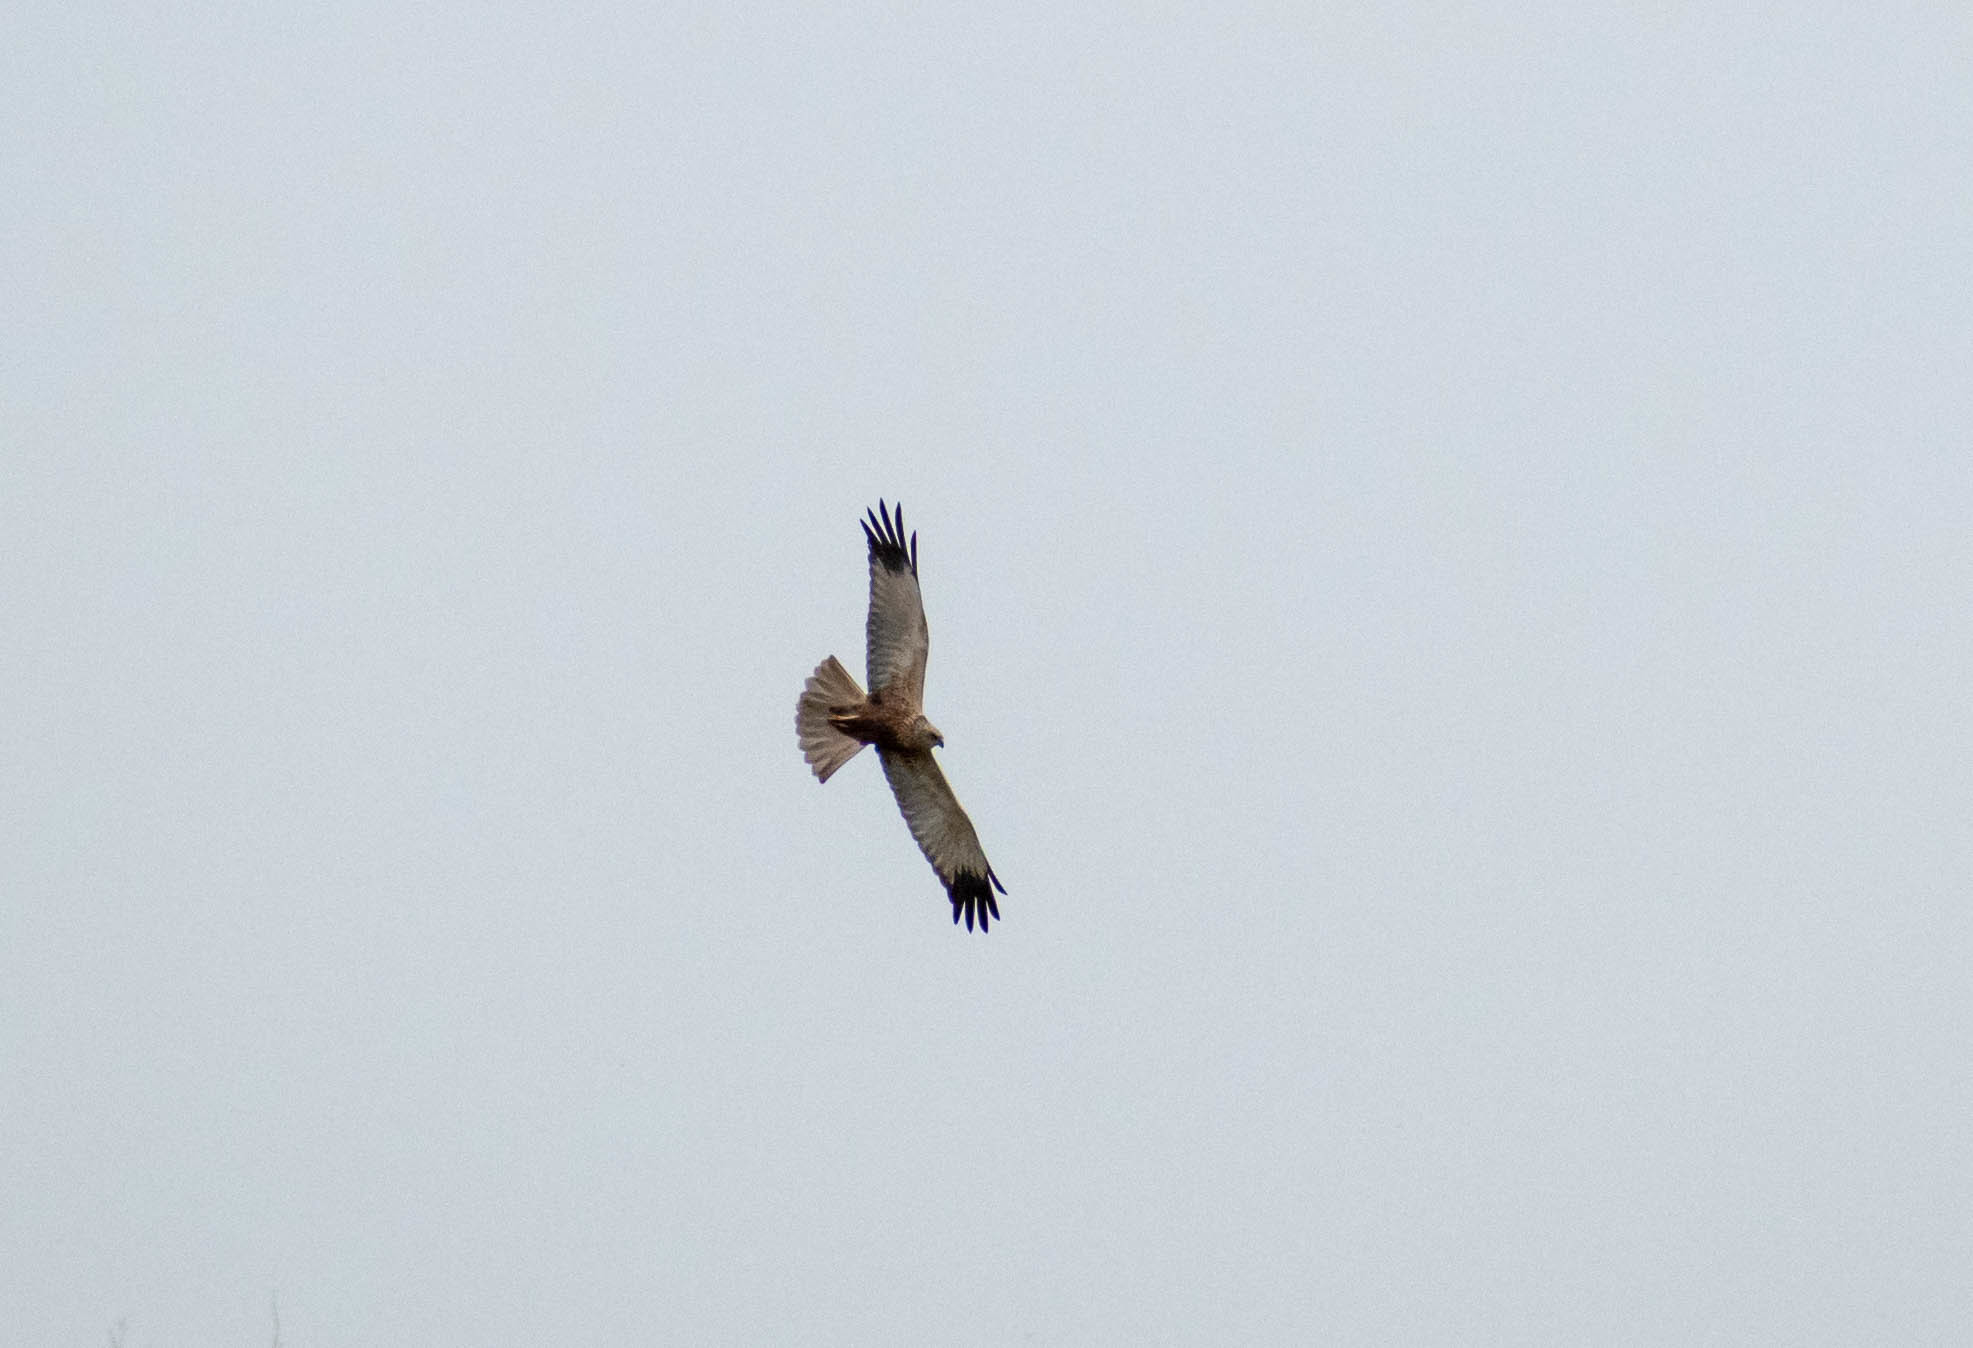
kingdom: Animalia
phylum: Chordata
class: Aves
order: Accipitriformes
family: Accipitridae
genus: Circus
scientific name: Circus aeruginosus
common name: Western marsh harrier
